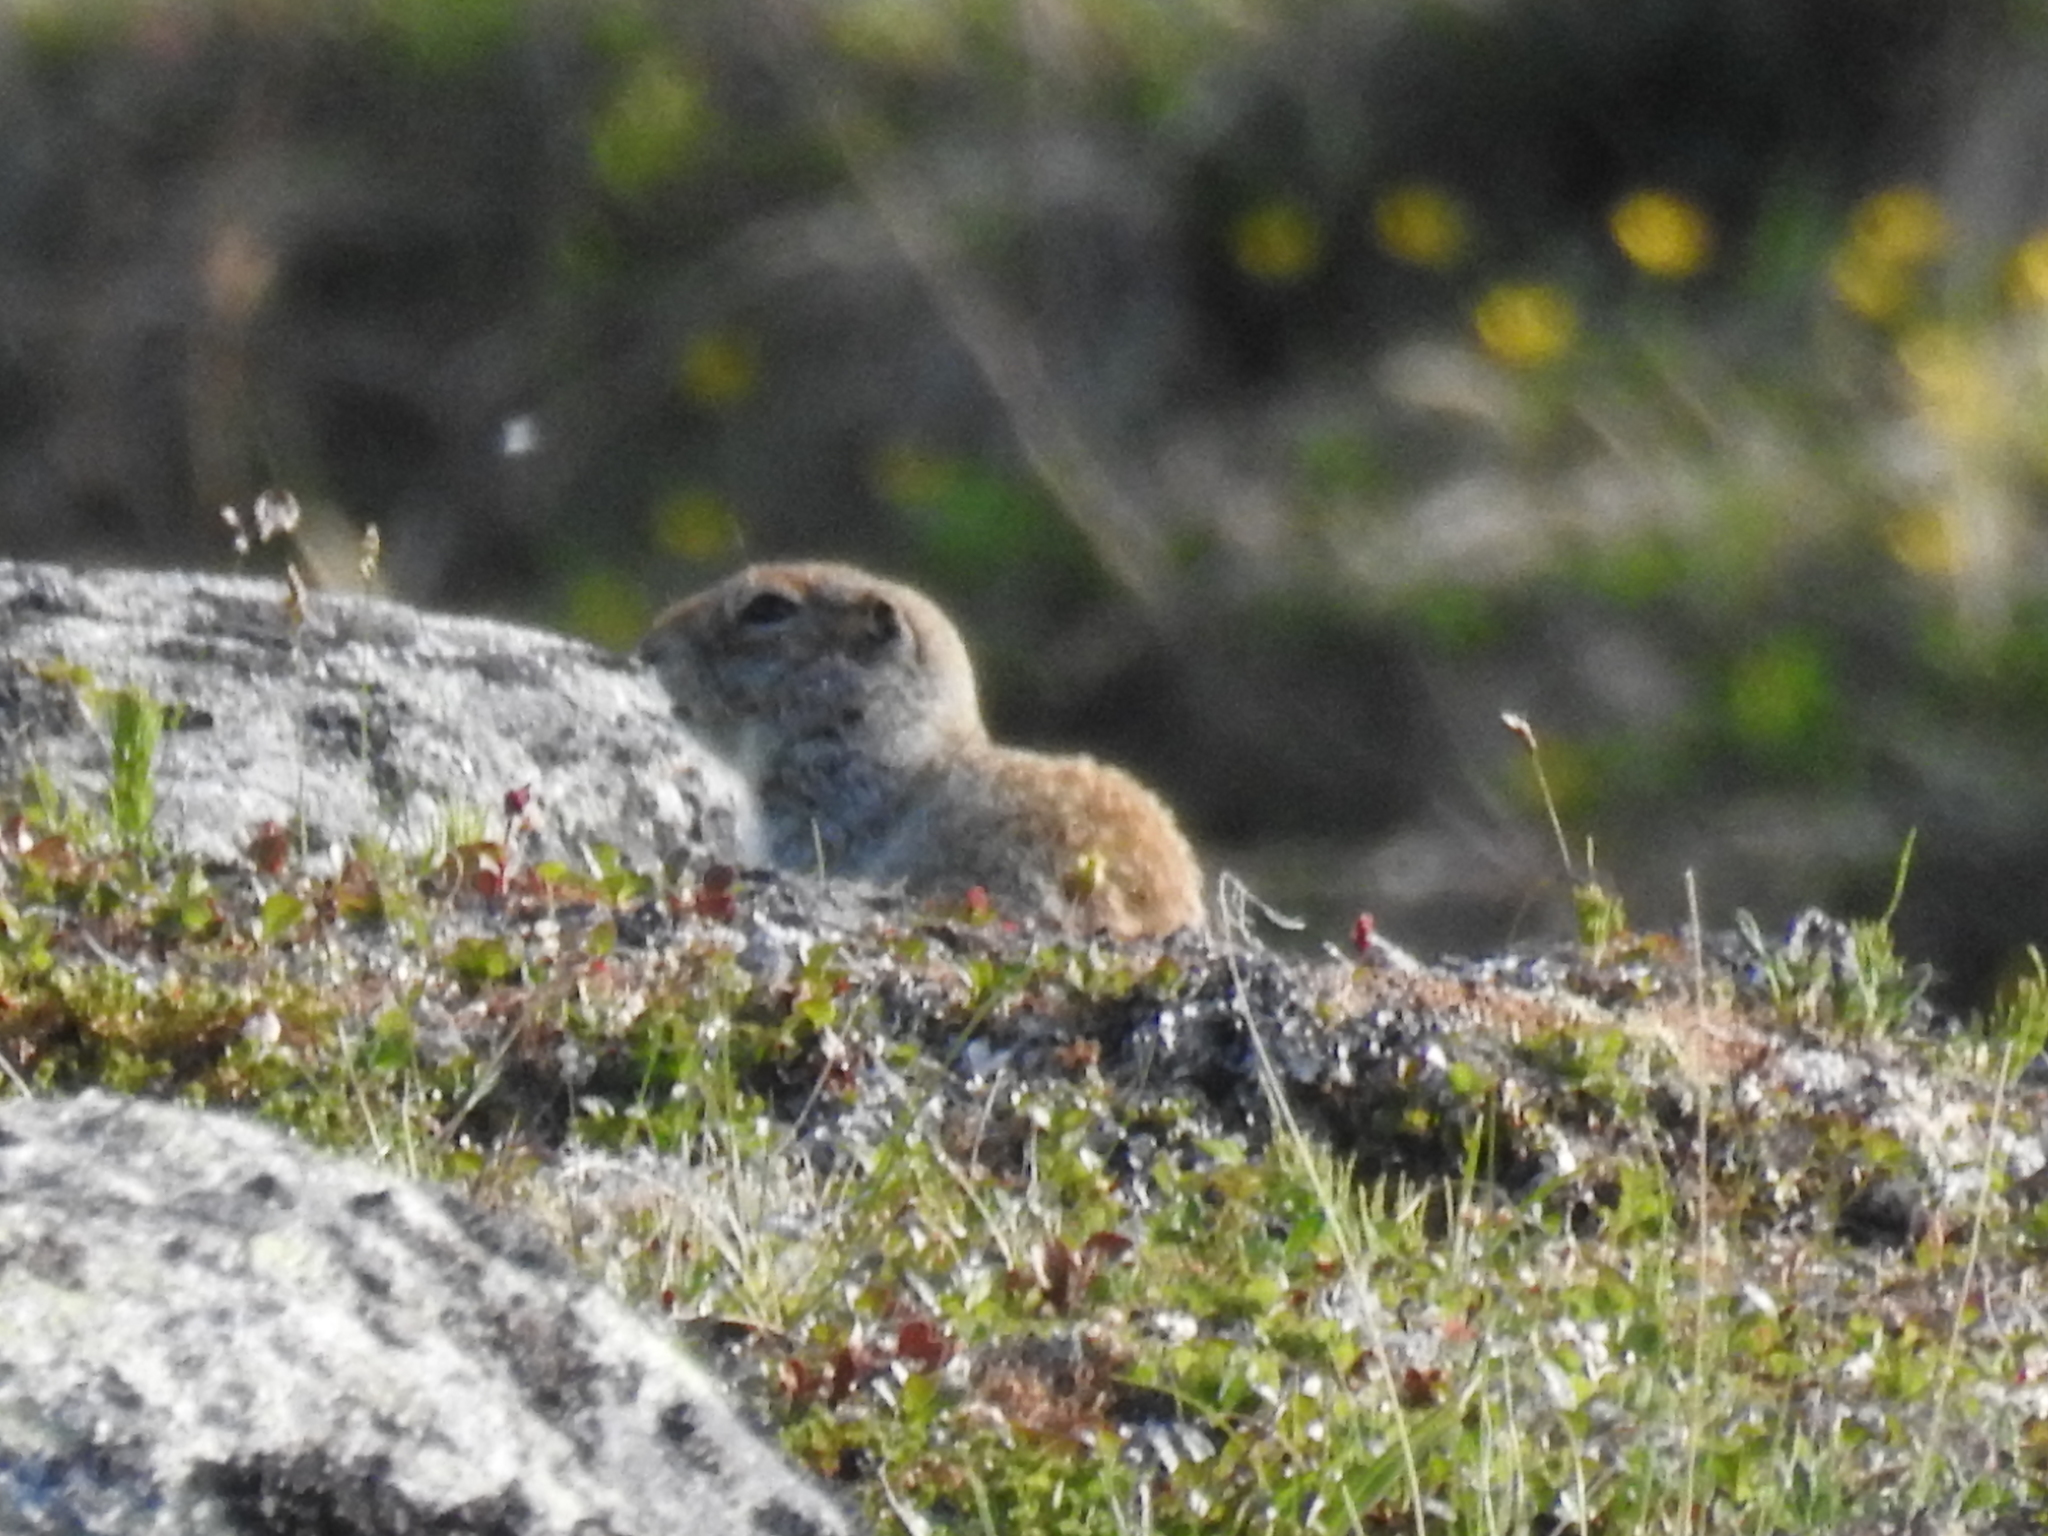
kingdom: Animalia
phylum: Chordata
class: Mammalia
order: Rodentia
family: Sciuridae
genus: Urocitellus
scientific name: Urocitellus parryii
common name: Arctic ground squirrel
